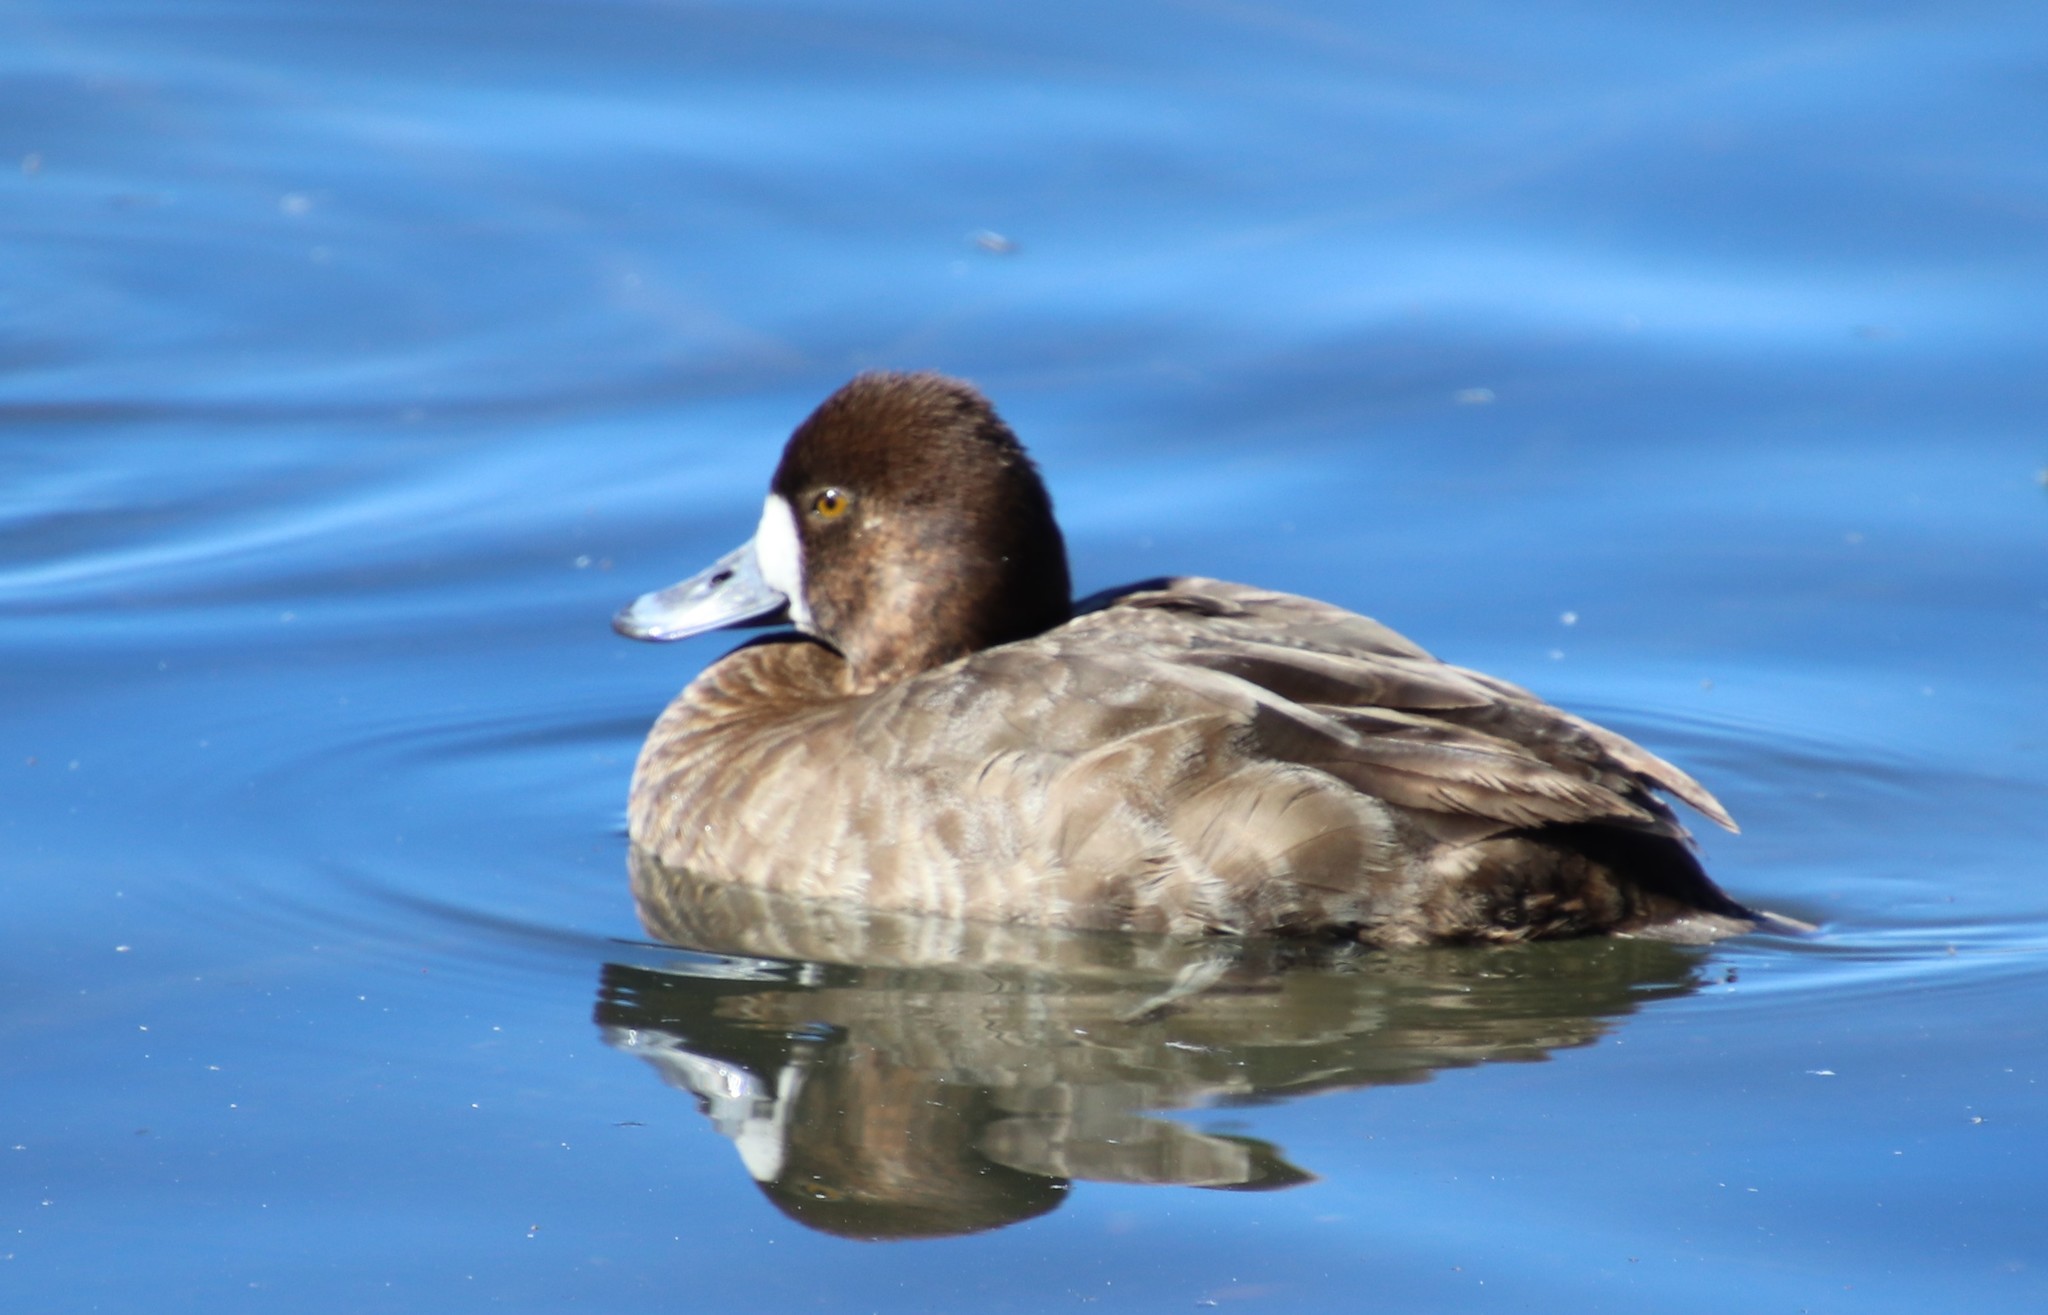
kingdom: Animalia
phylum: Chordata
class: Aves
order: Anseriformes
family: Anatidae
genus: Aythya
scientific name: Aythya affinis
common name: Lesser scaup
